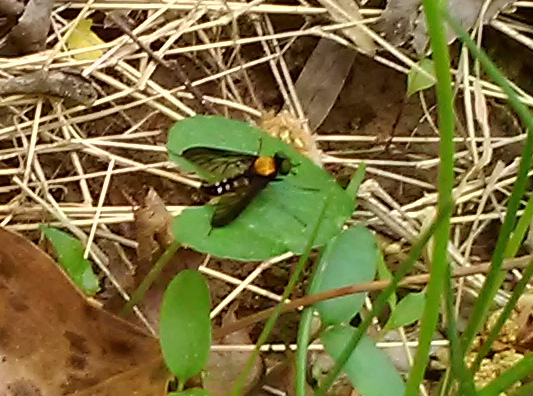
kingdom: Animalia
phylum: Arthropoda
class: Insecta
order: Diptera
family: Rhagionidae
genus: Chrysopilus
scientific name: Chrysopilus thoracicus
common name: Golden-backed snipe fly
